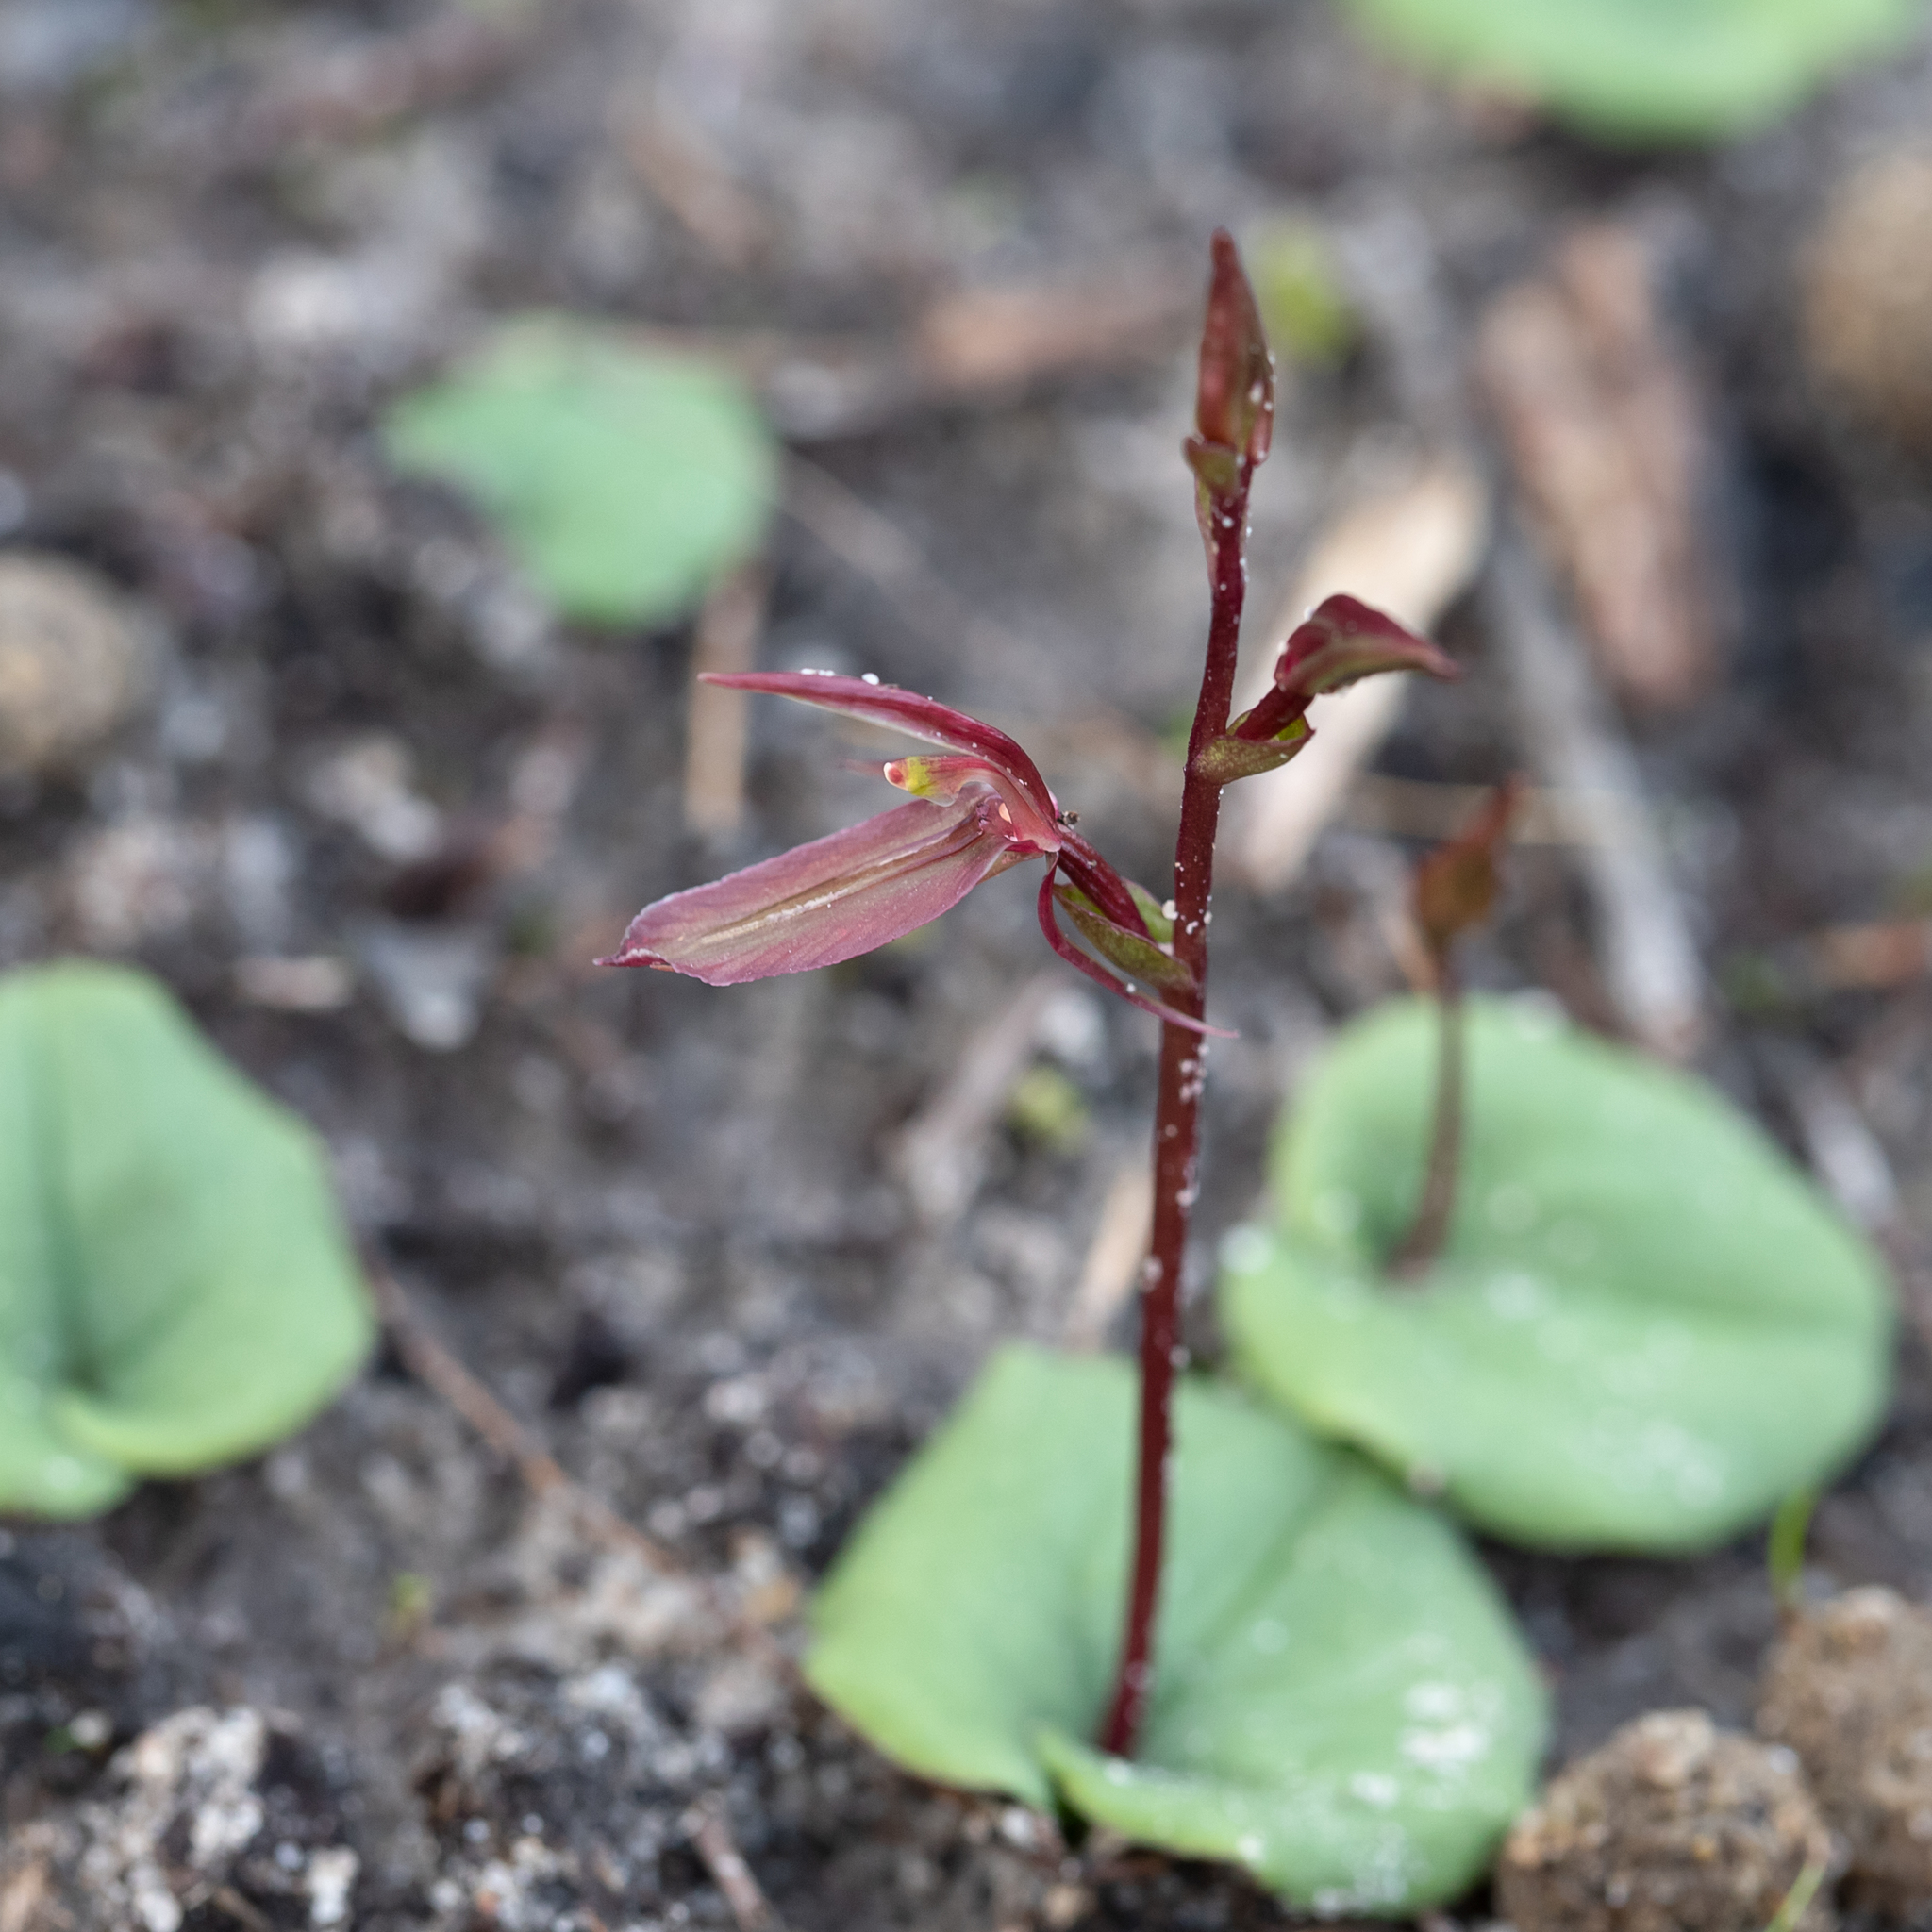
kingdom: Plantae
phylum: Tracheophyta
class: Liliopsida
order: Asparagales
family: Orchidaceae
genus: Cyrtostylis
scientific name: Cyrtostylis robusta
